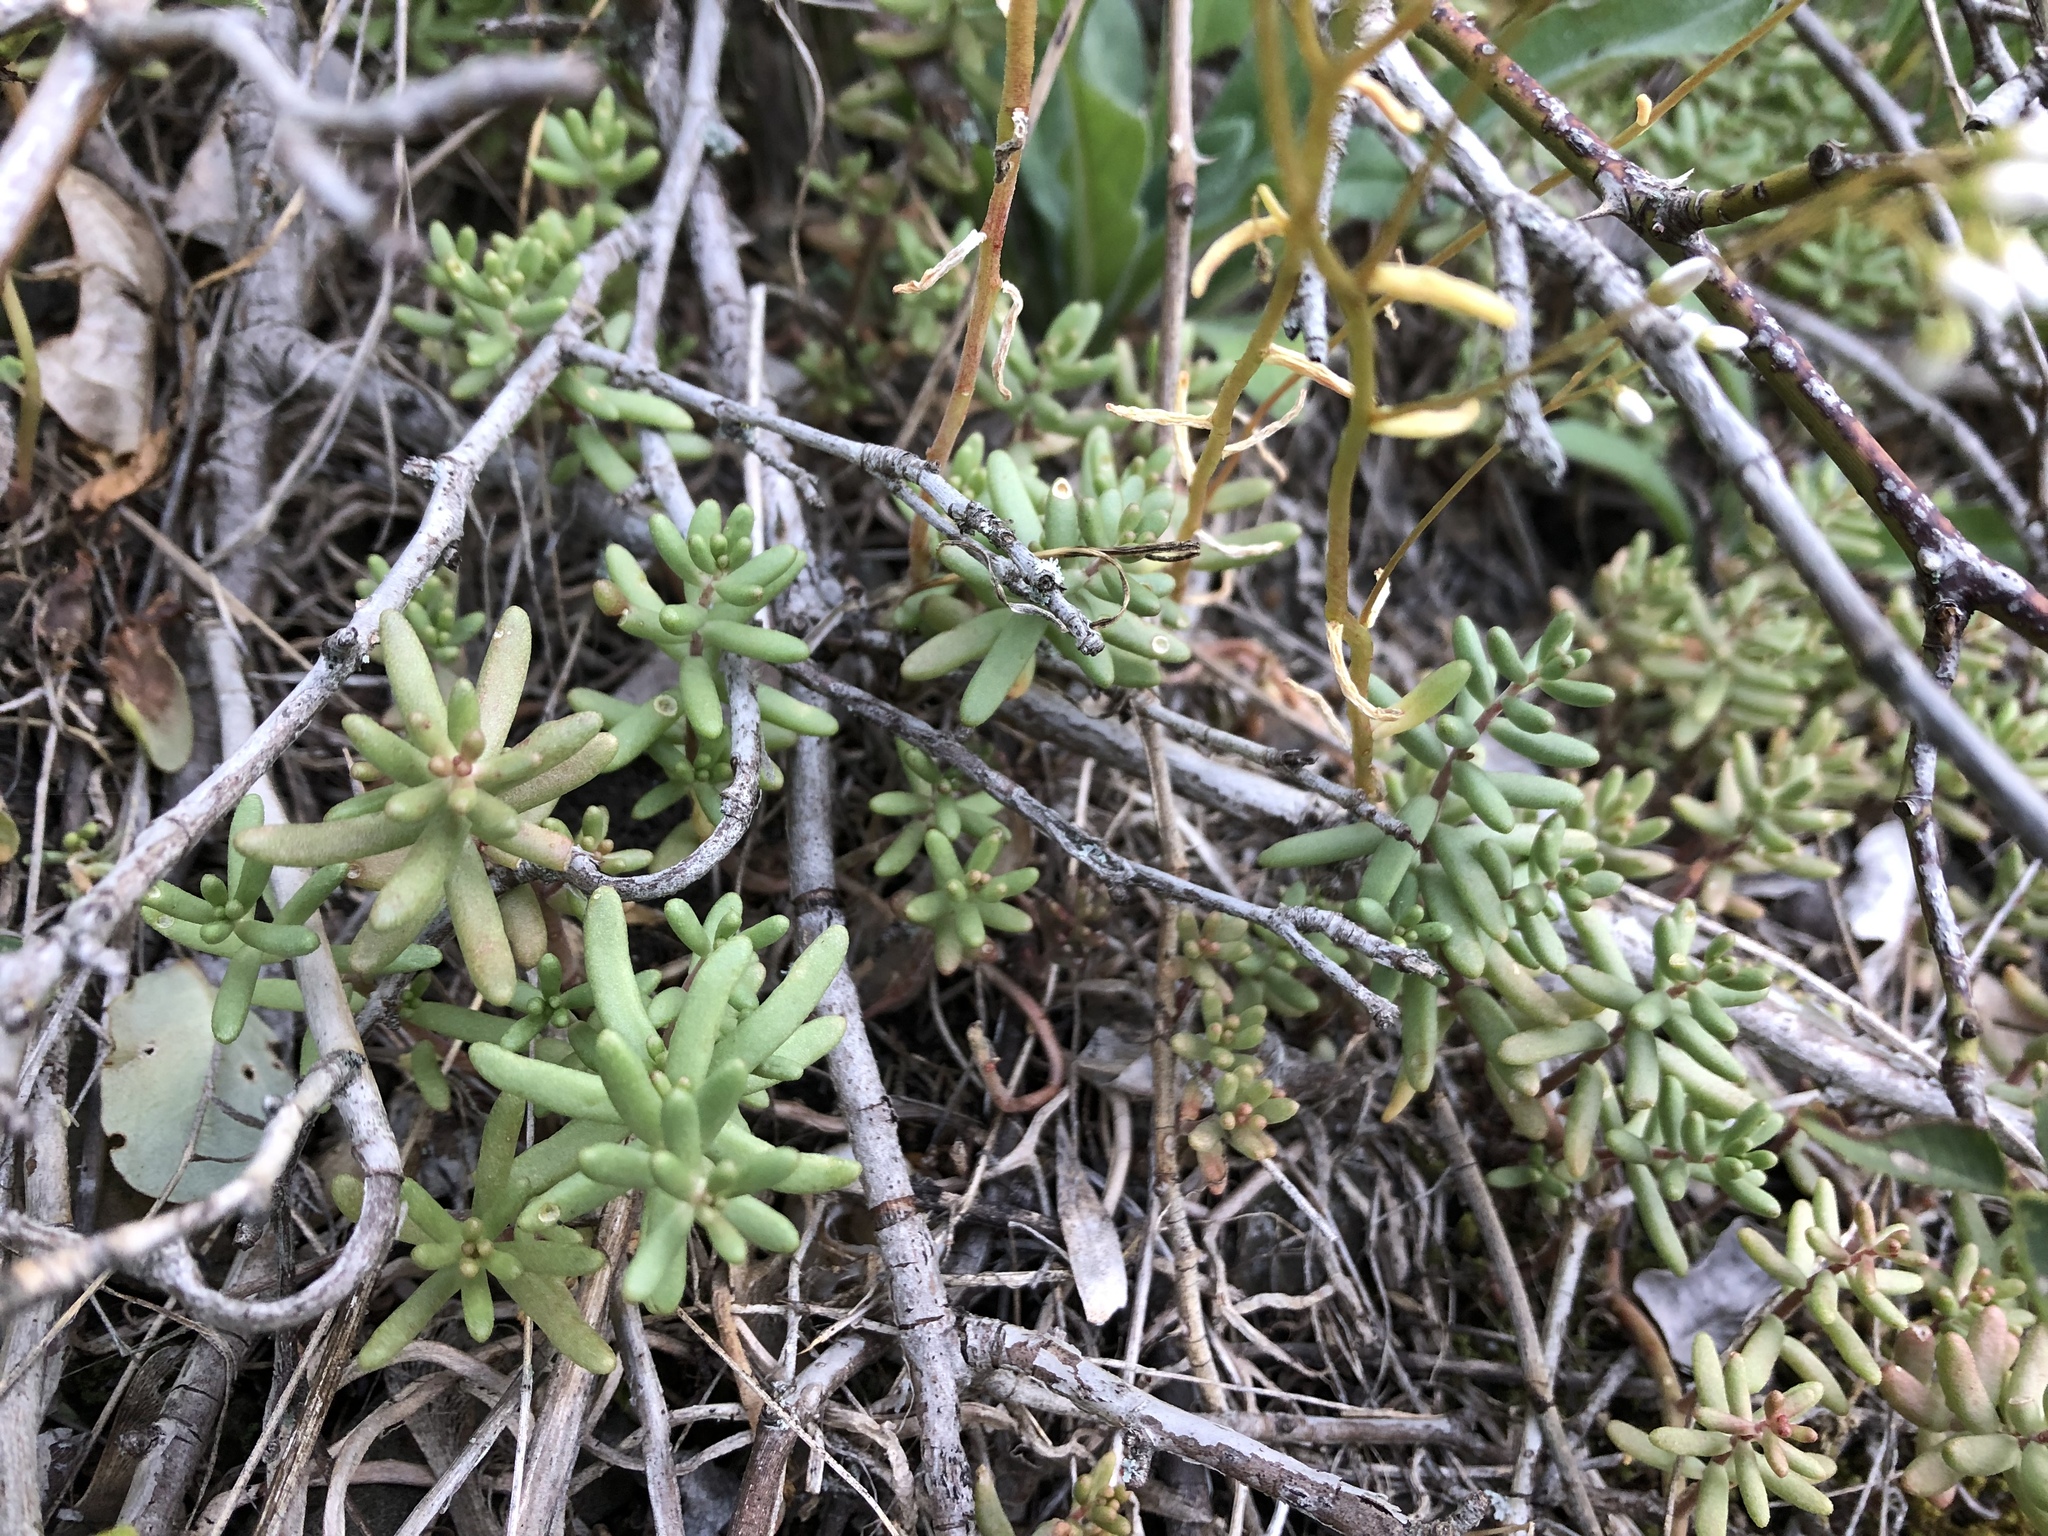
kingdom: Plantae
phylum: Tracheophyta
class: Magnoliopsida
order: Saxifragales
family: Crassulaceae
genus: Sedum
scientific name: Sedum album
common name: White stonecrop
